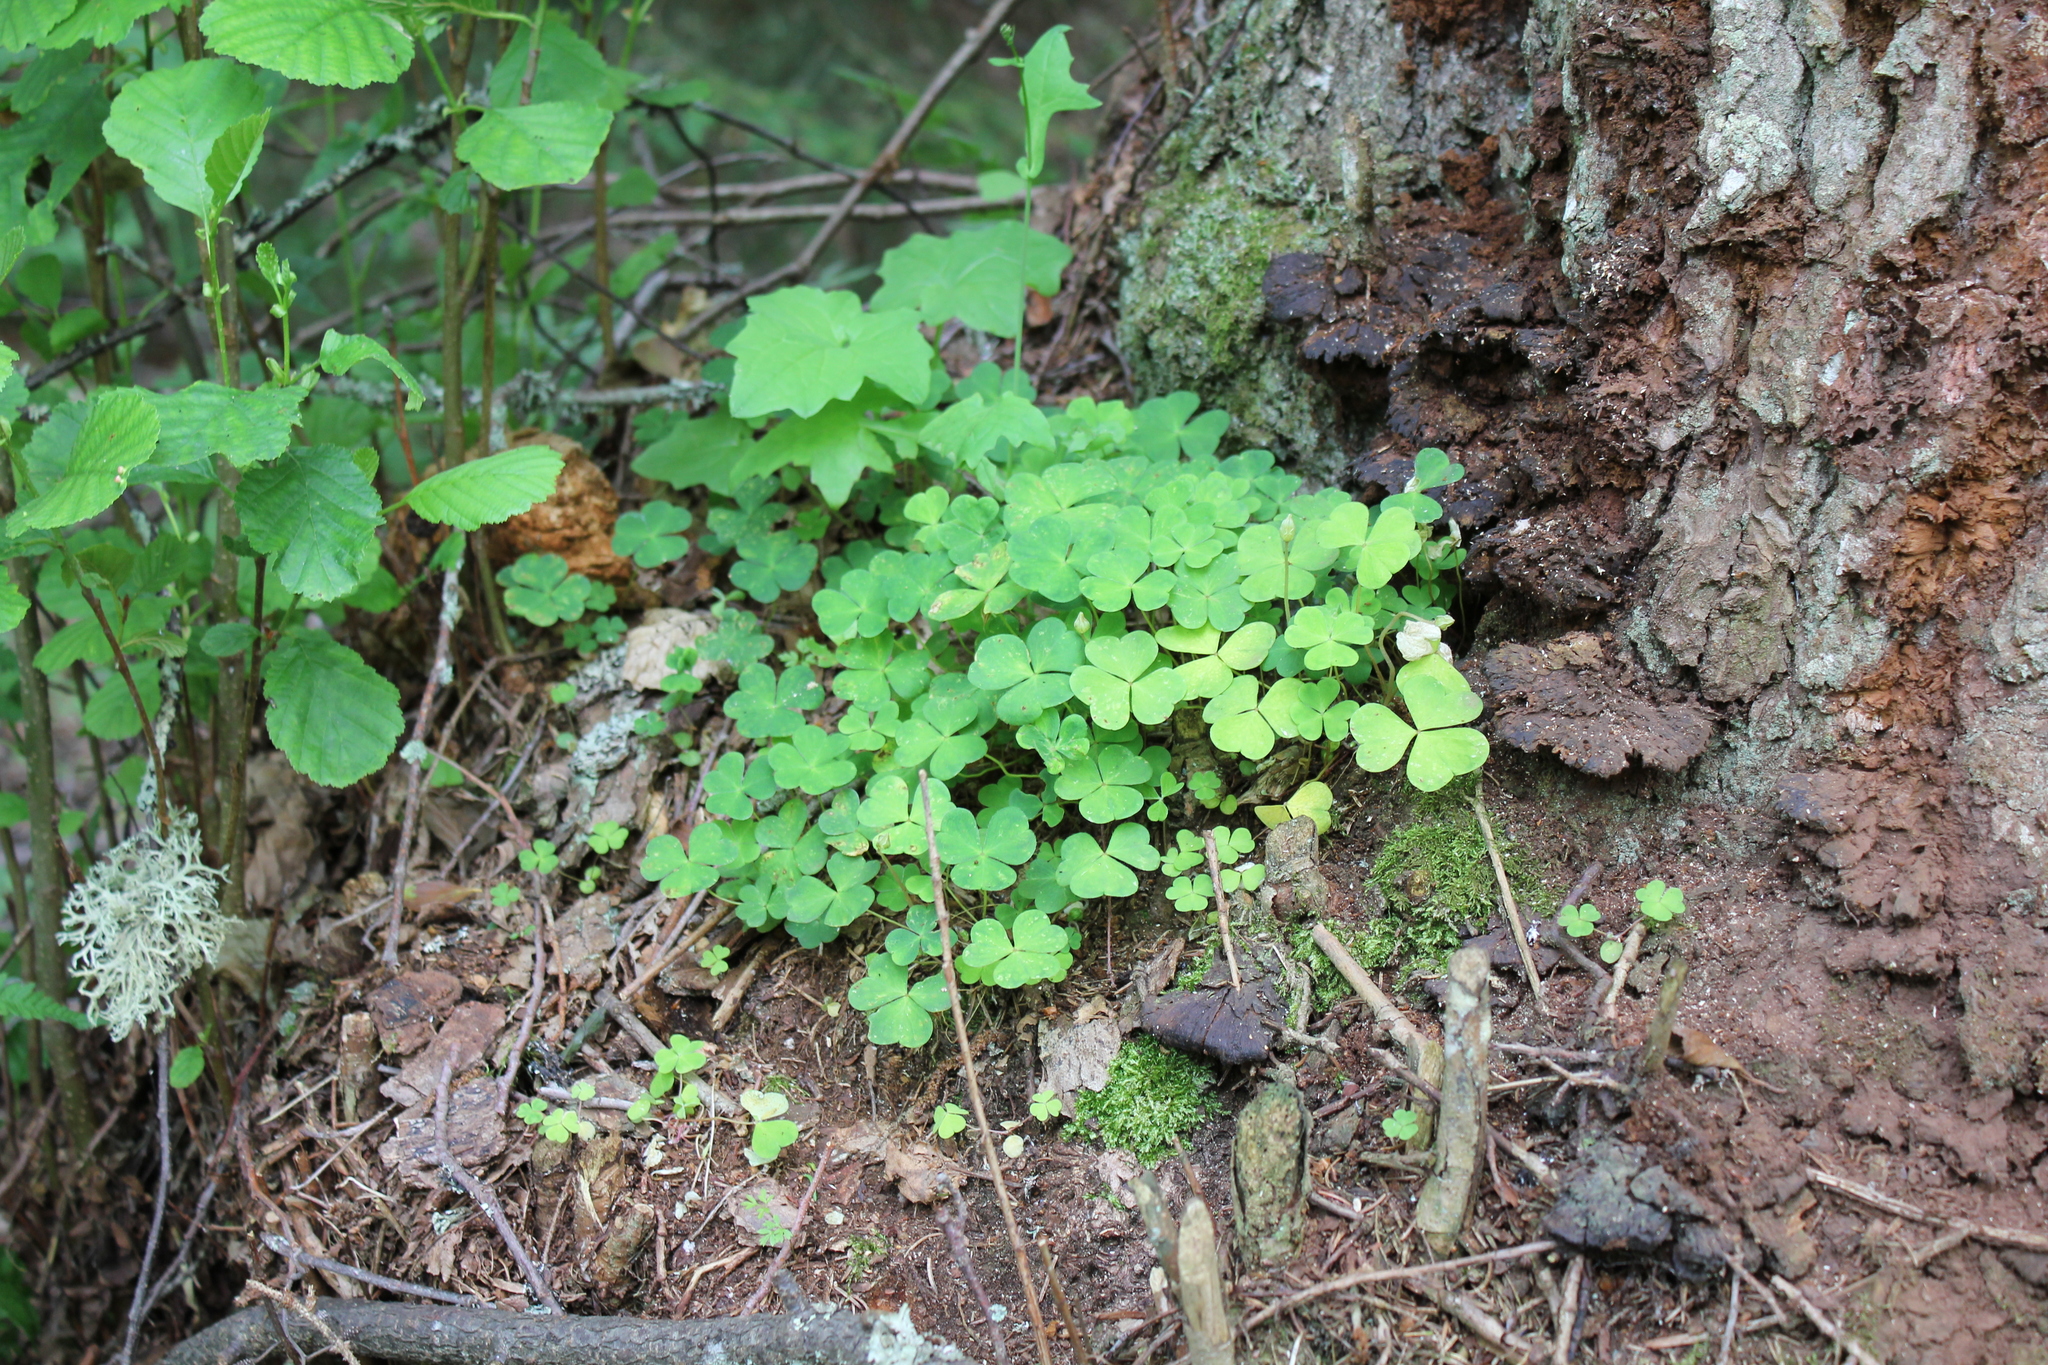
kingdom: Plantae
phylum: Tracheophyta
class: Magnoliopsida
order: Oxalidales
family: Oxalidaceae
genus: Oxalis
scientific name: Oxalis acetosella
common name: Wood-sorrel
